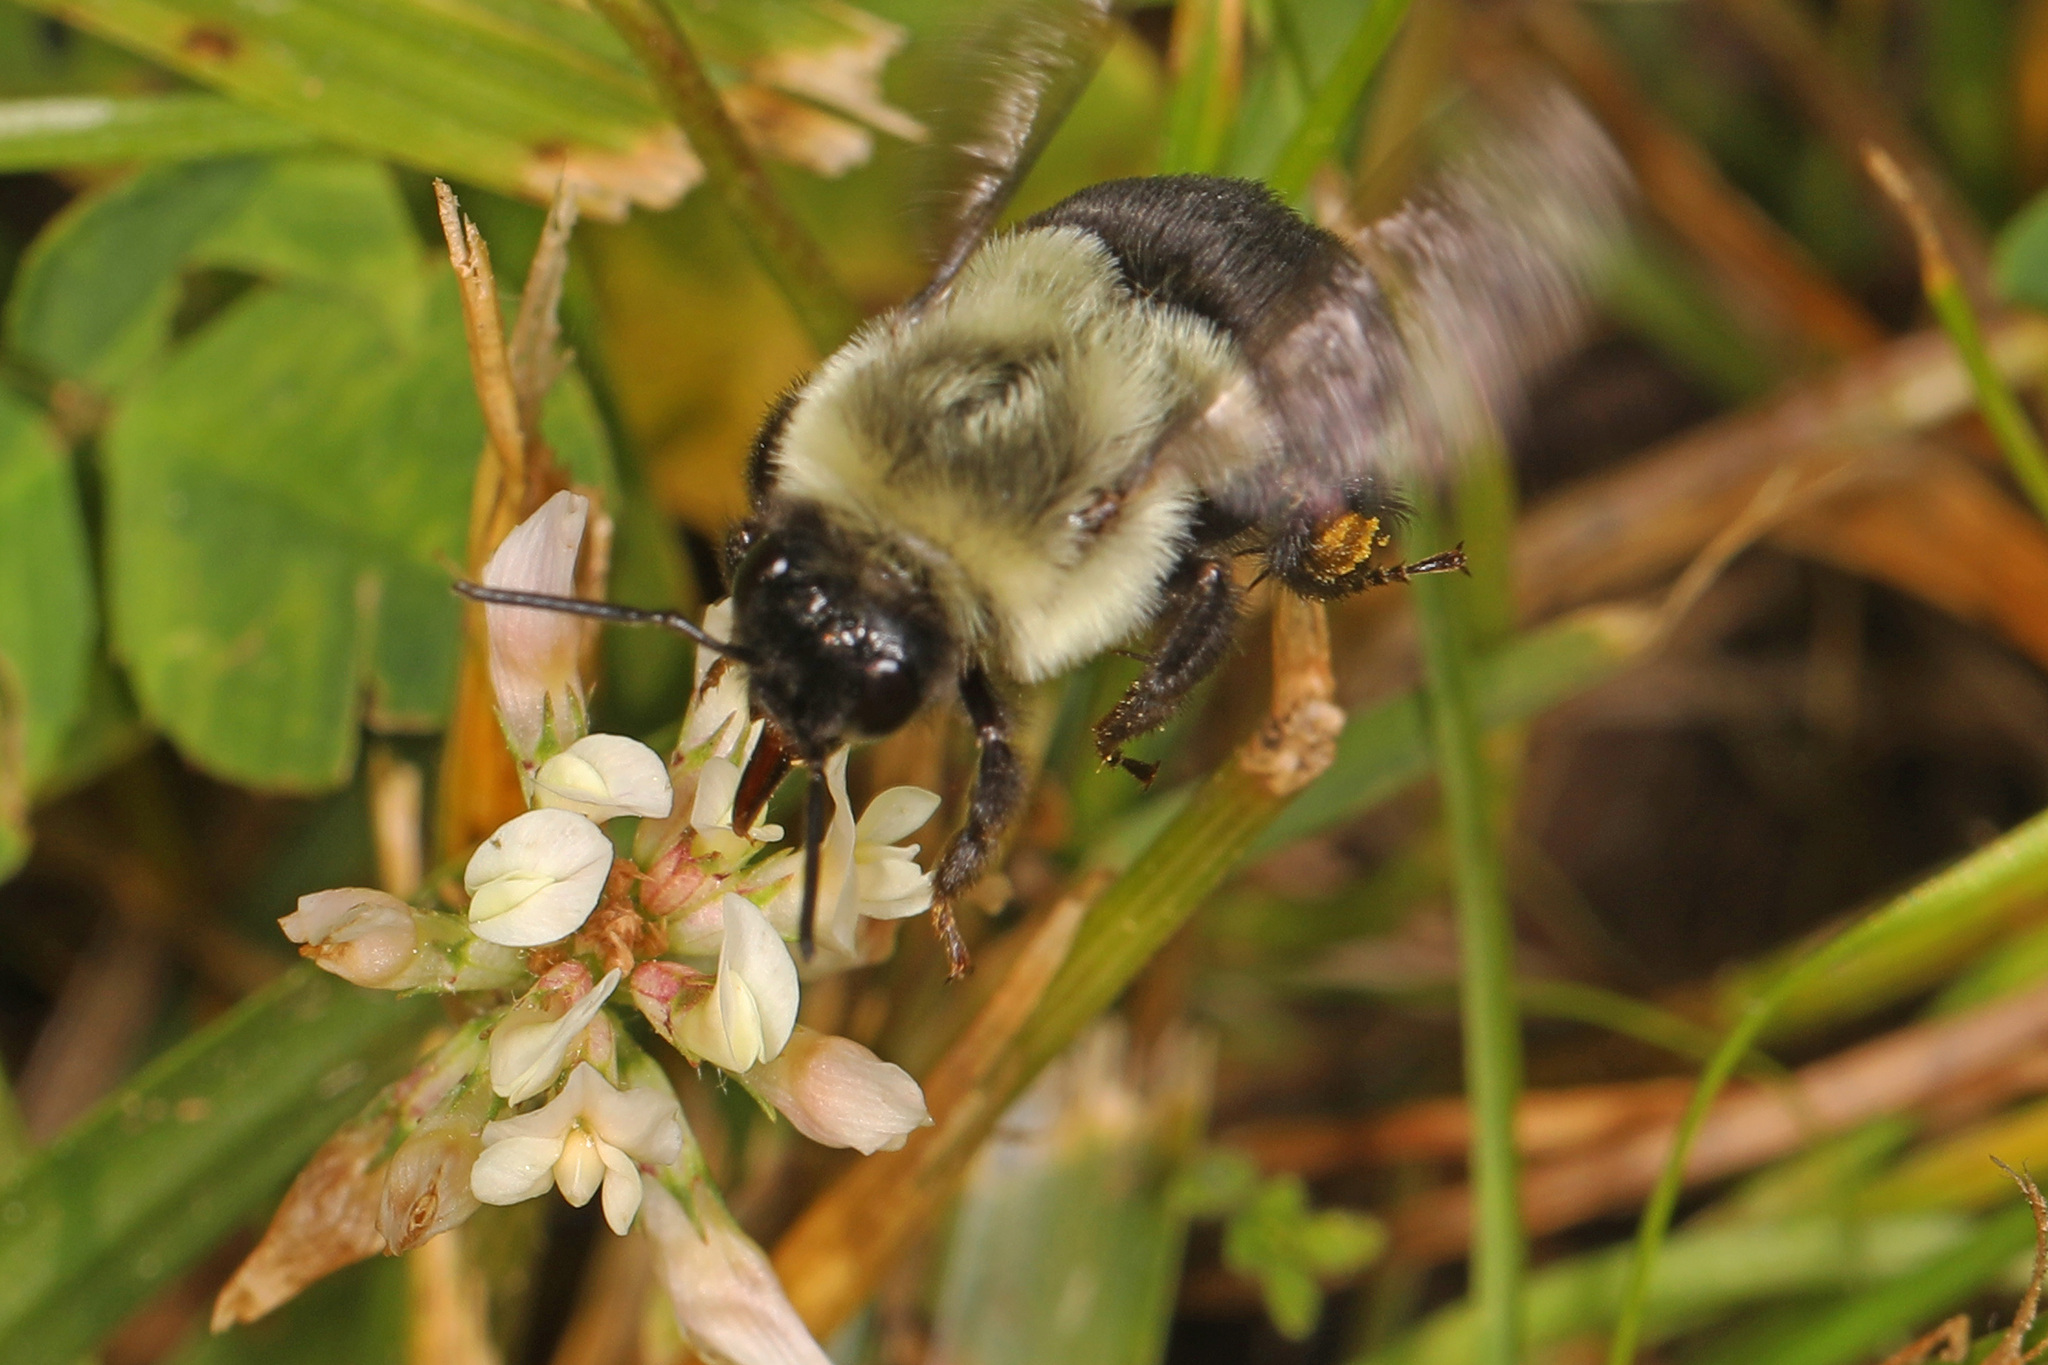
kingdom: Animalia
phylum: Arthropoda
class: Insecta
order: Hymenoptera
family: Apidae
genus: Bombus
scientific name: Bombus impatiens
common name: Common eastern bumble bee
